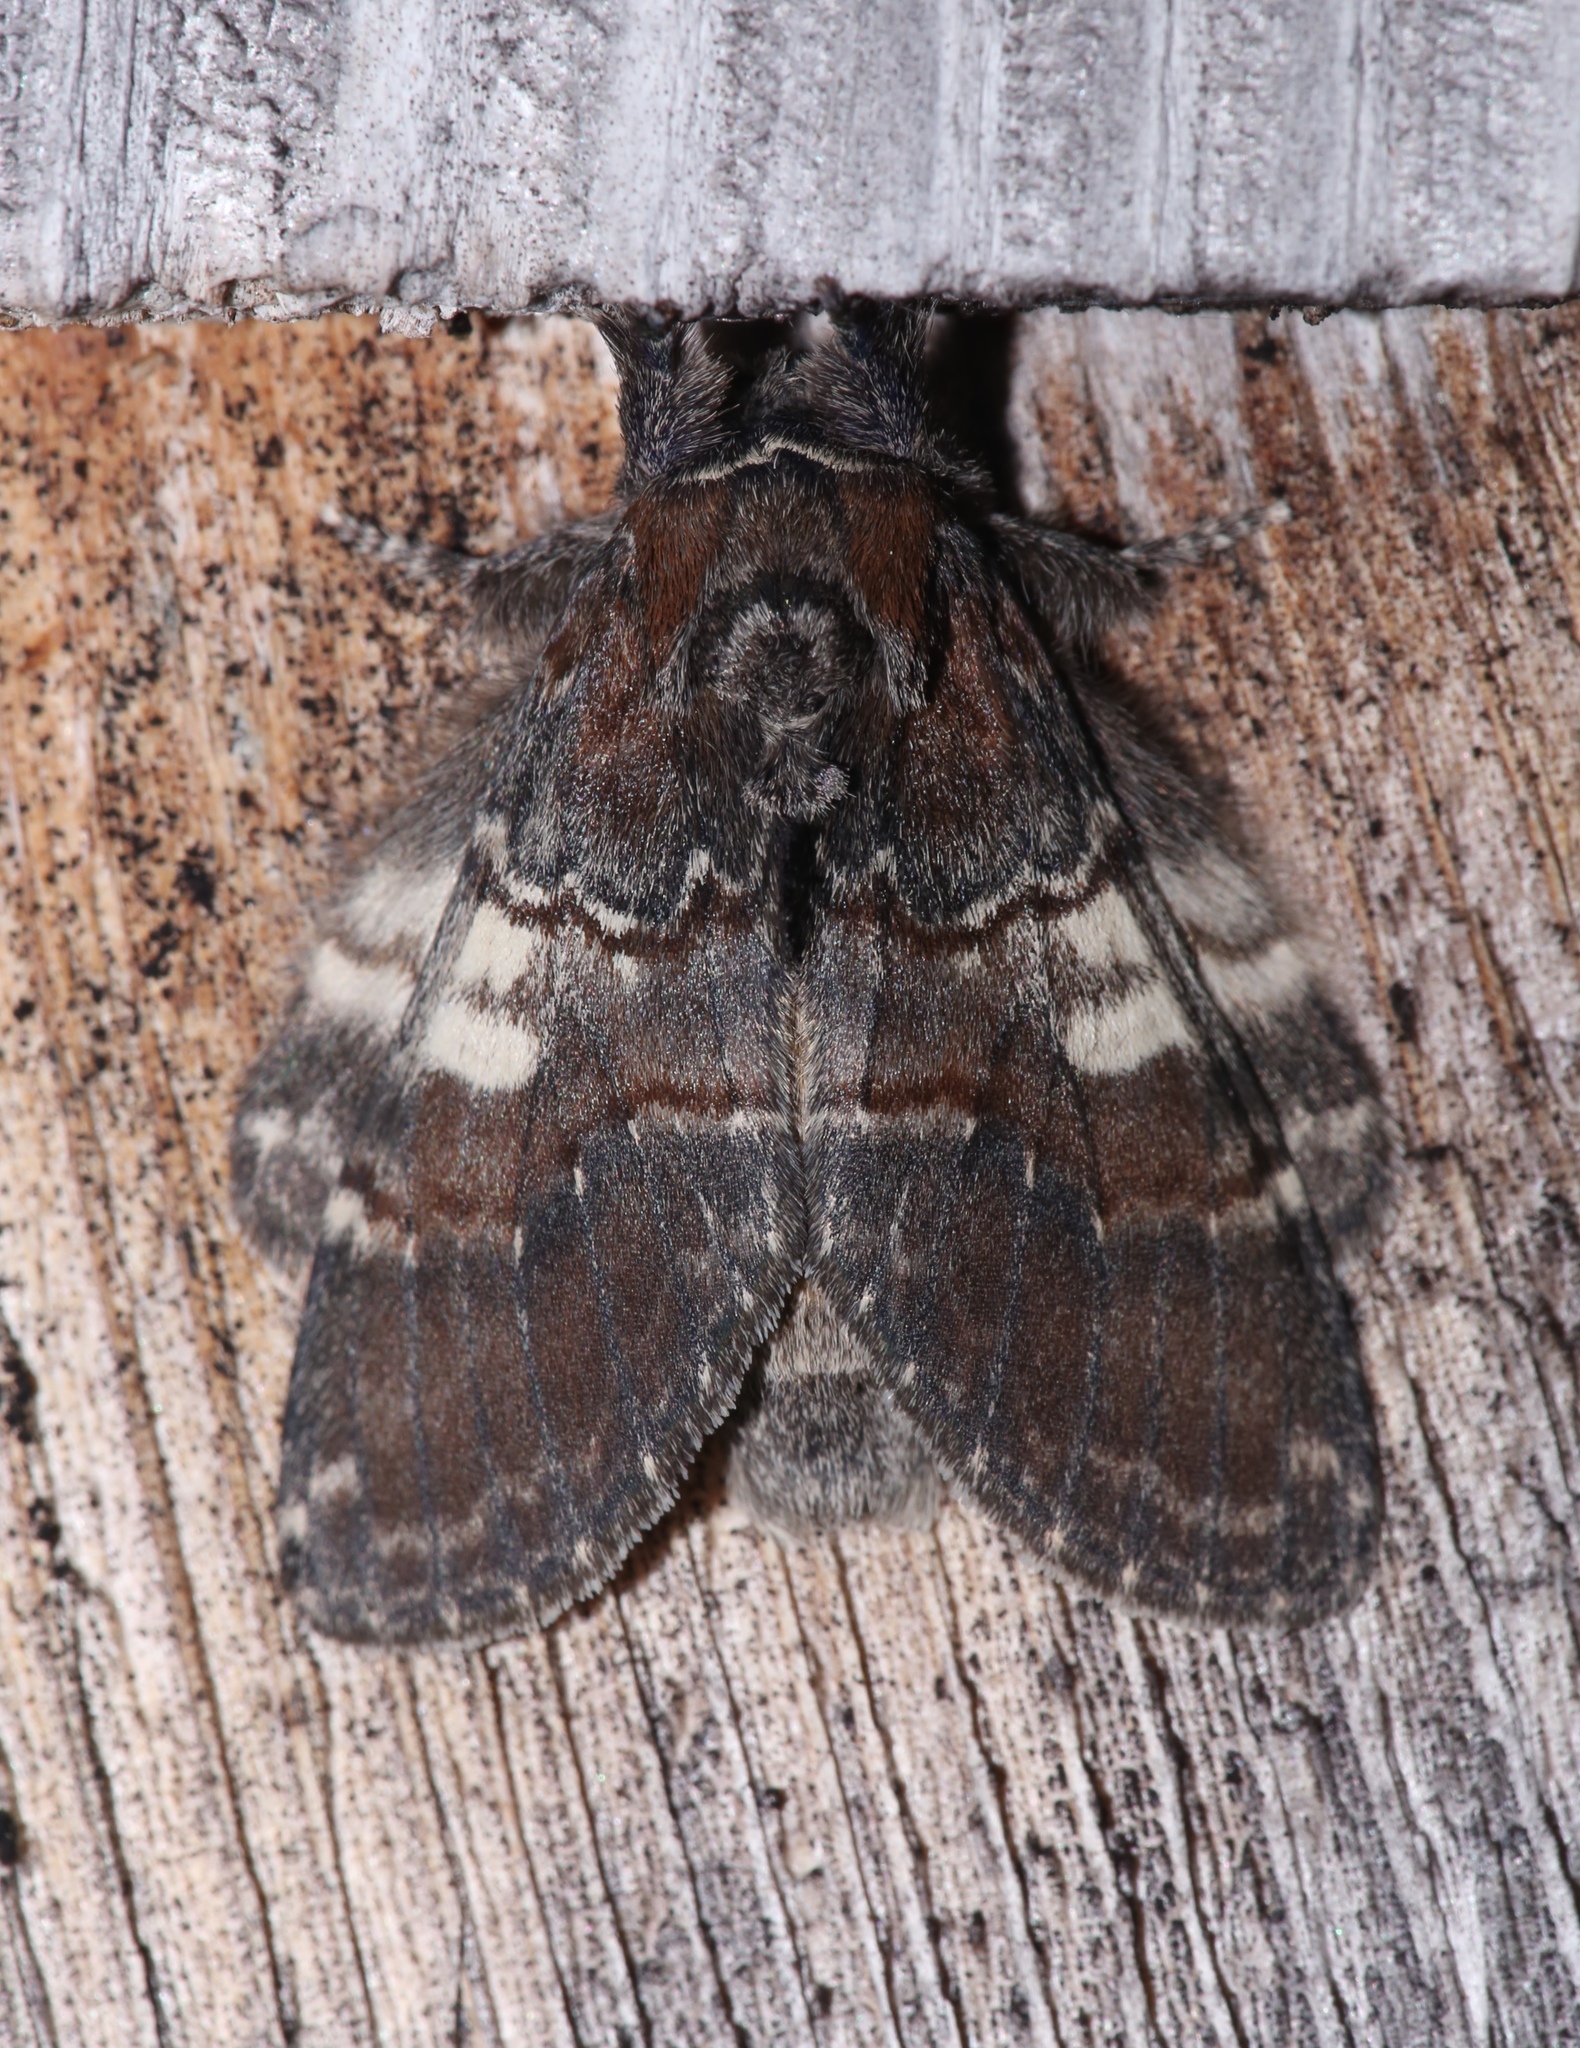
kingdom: Animalia
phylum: Arthropoda
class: Insecta
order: Lepidoptera
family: Notodontidae
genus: Peridea
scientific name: Peridea ferruginea
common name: Chocolate prominent
